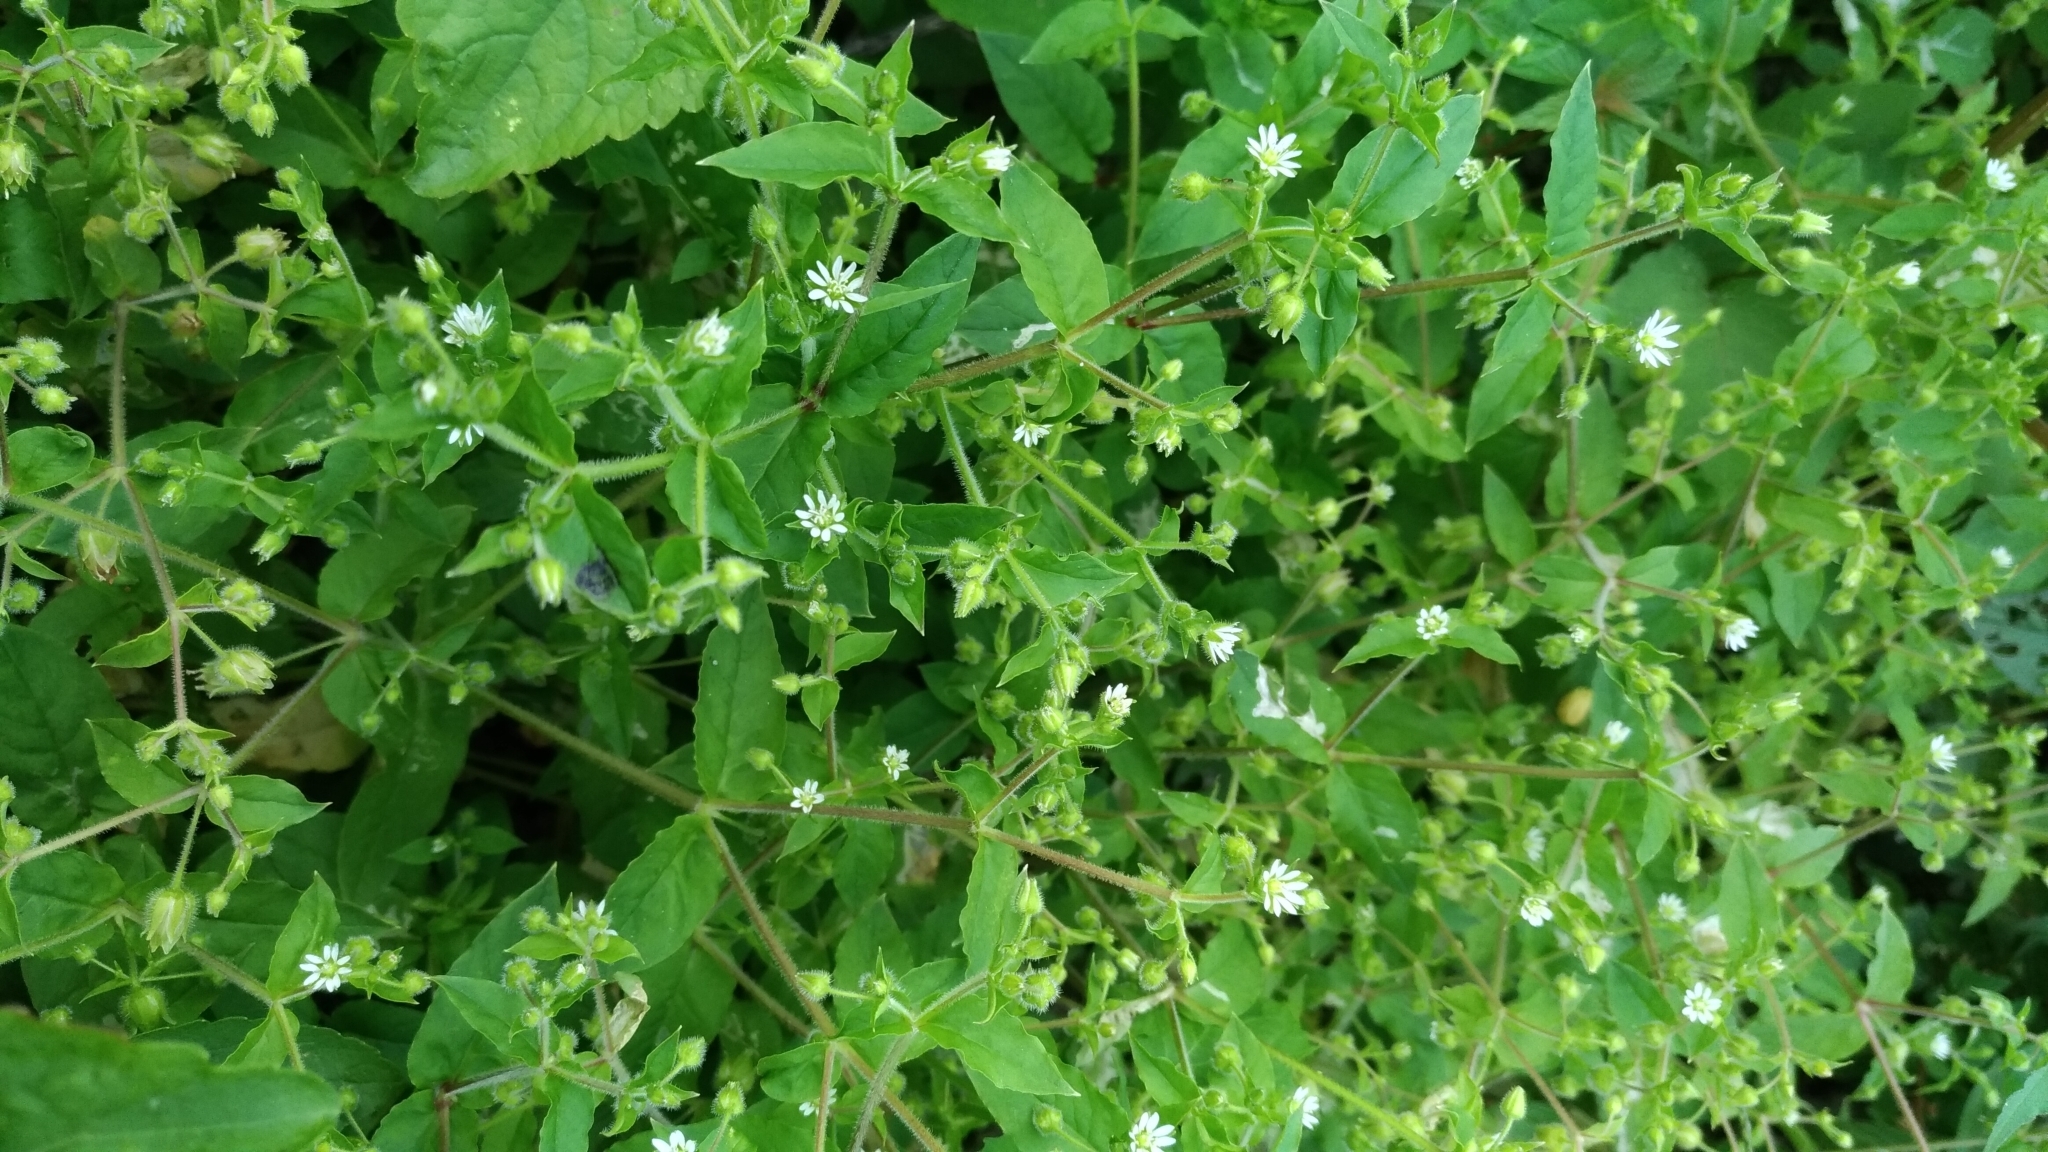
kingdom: Plantae
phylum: Tracheophyta
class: Magnoliopsida
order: Caryophyllales
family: Caryophyllaceae
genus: Stellaria
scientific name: Stellaria aquatica
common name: Water chickweed
